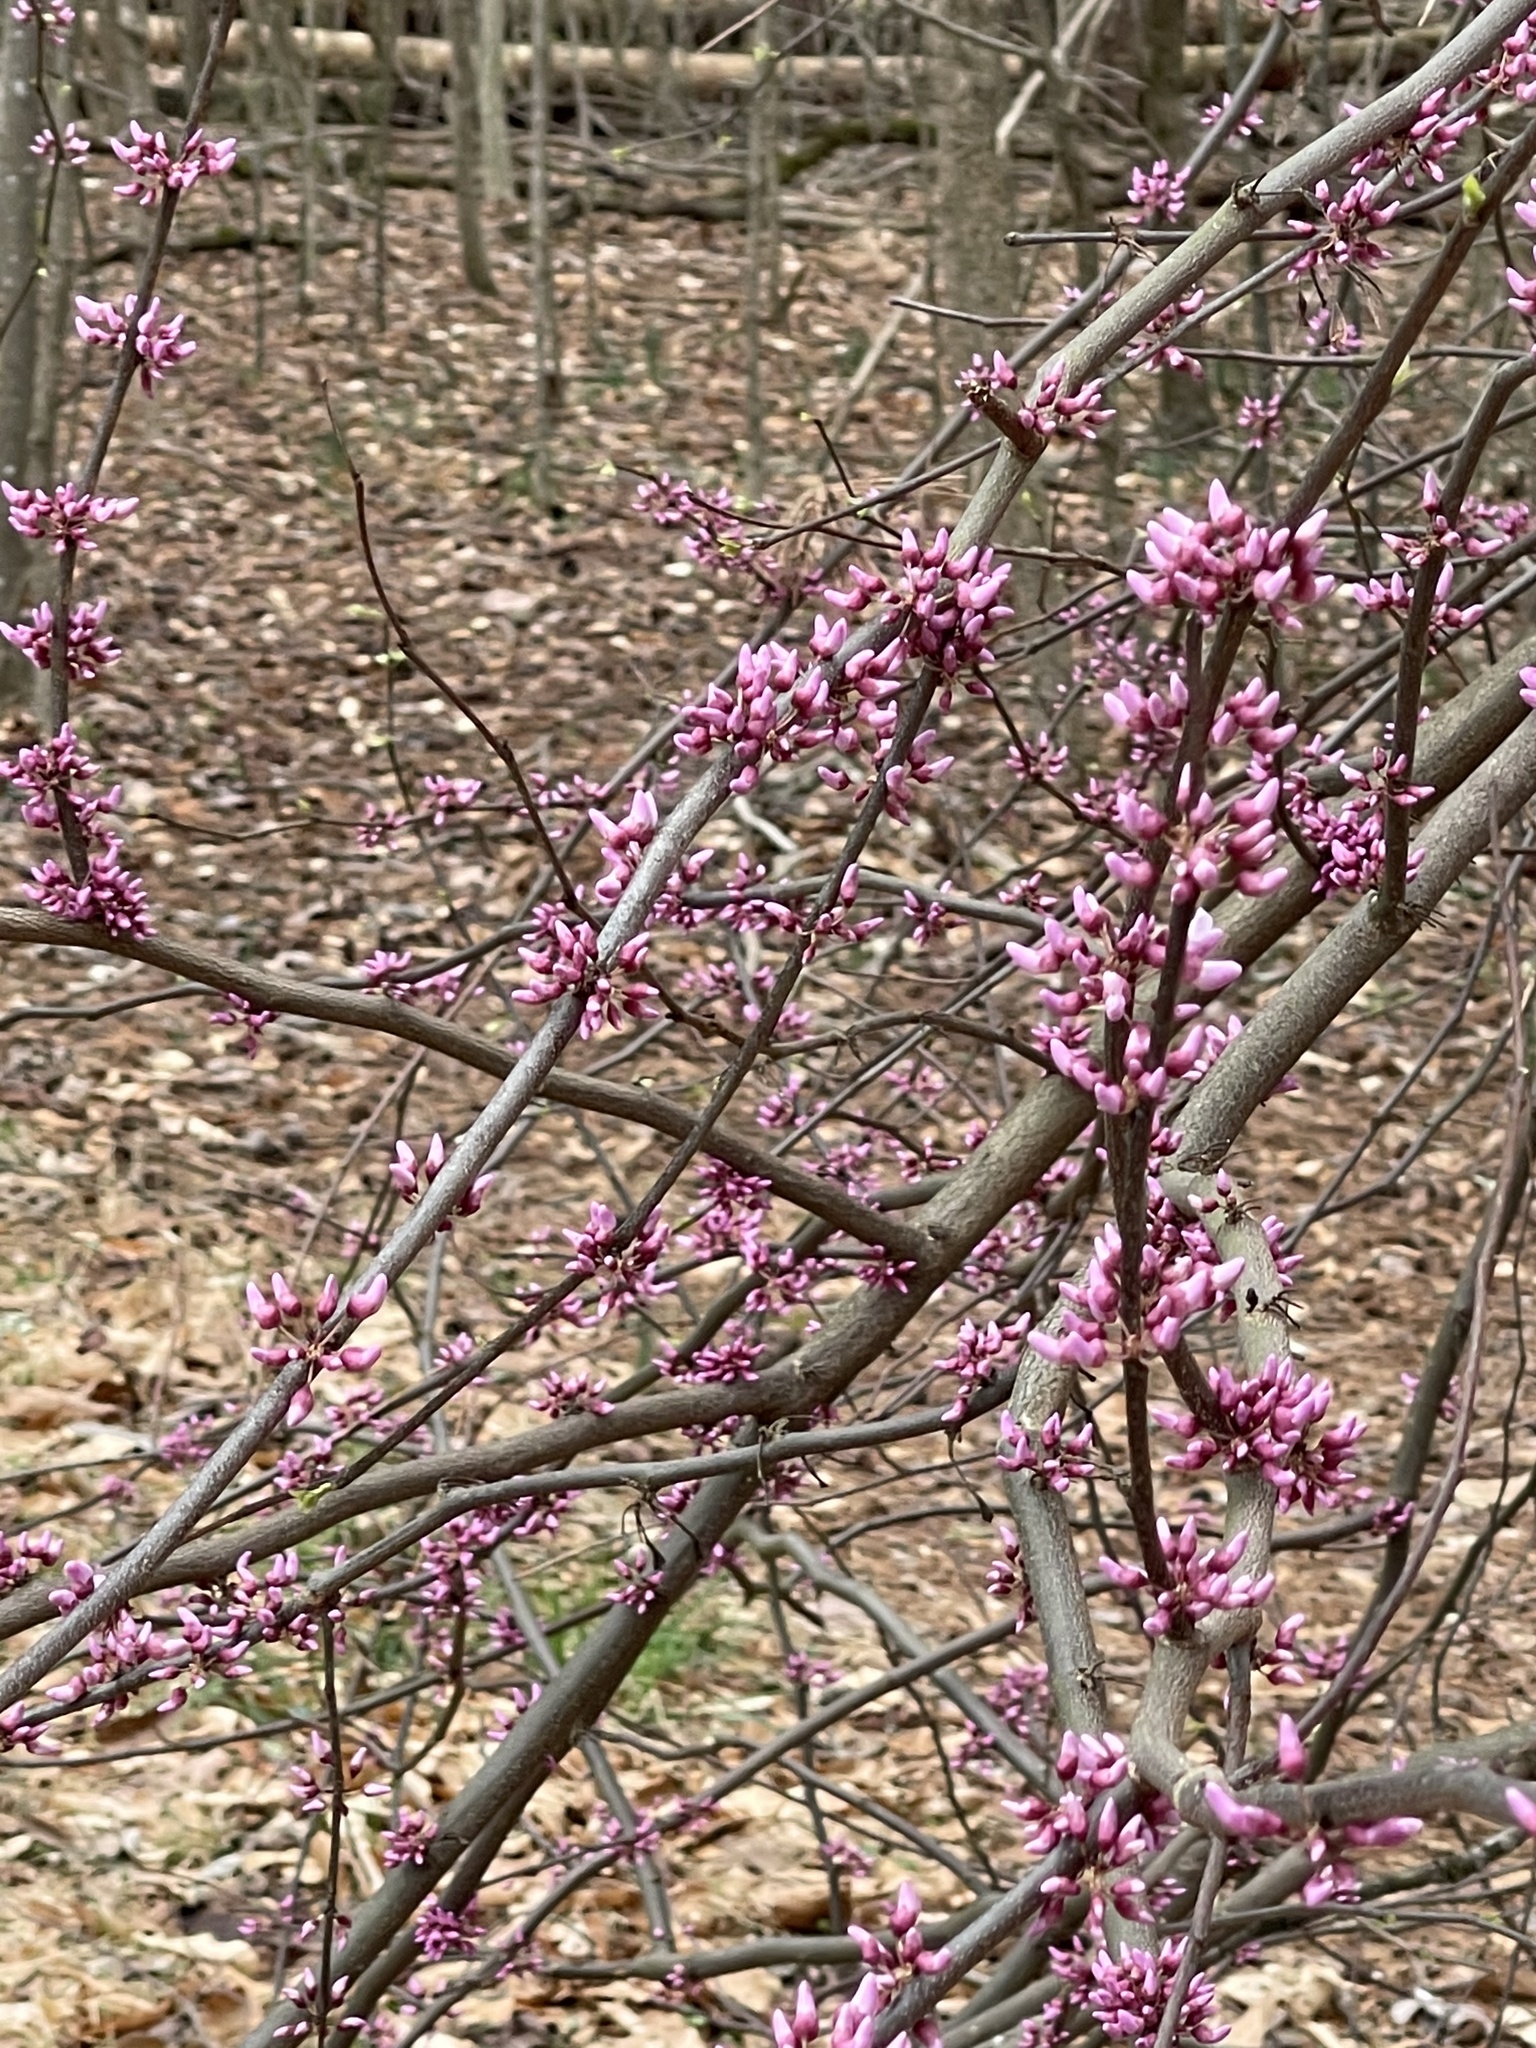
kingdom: Plantae
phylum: Tracheophyta
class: Magnoliopsida
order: Fabales
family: Fabaceae
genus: Cercis
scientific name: Cercis canadensis
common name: Eastern redbud
